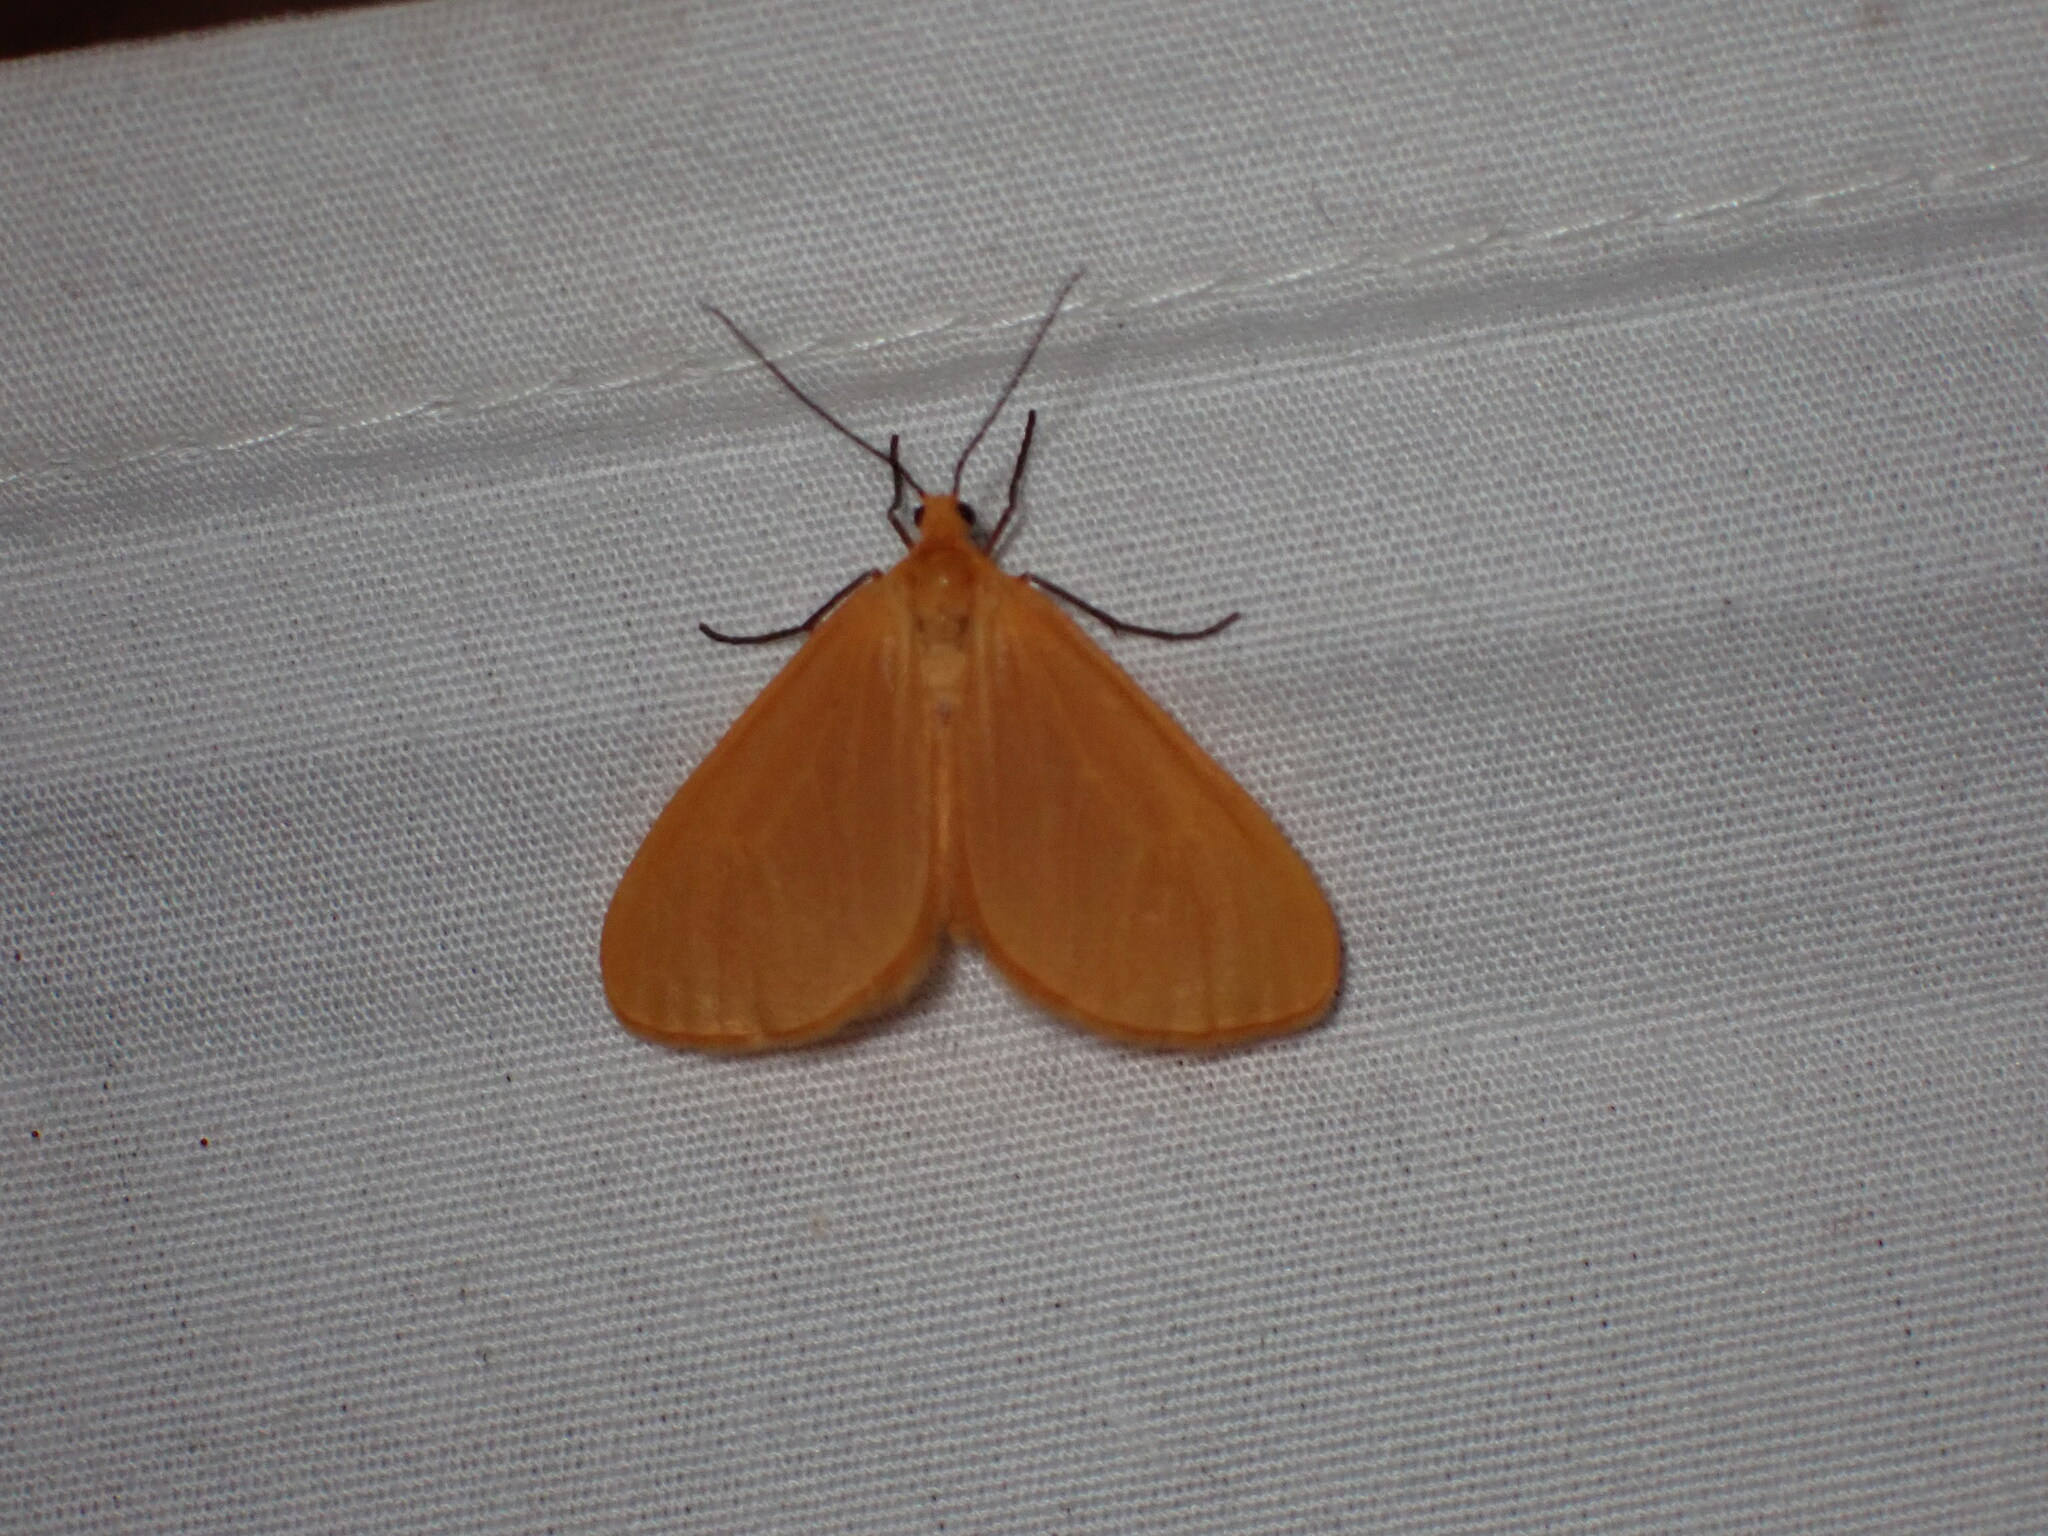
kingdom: Animalia
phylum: Arthropoda
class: Insecta
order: Lepidoptera
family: Geometridae
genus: Eubaphe
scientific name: Eubaphe unicolor
